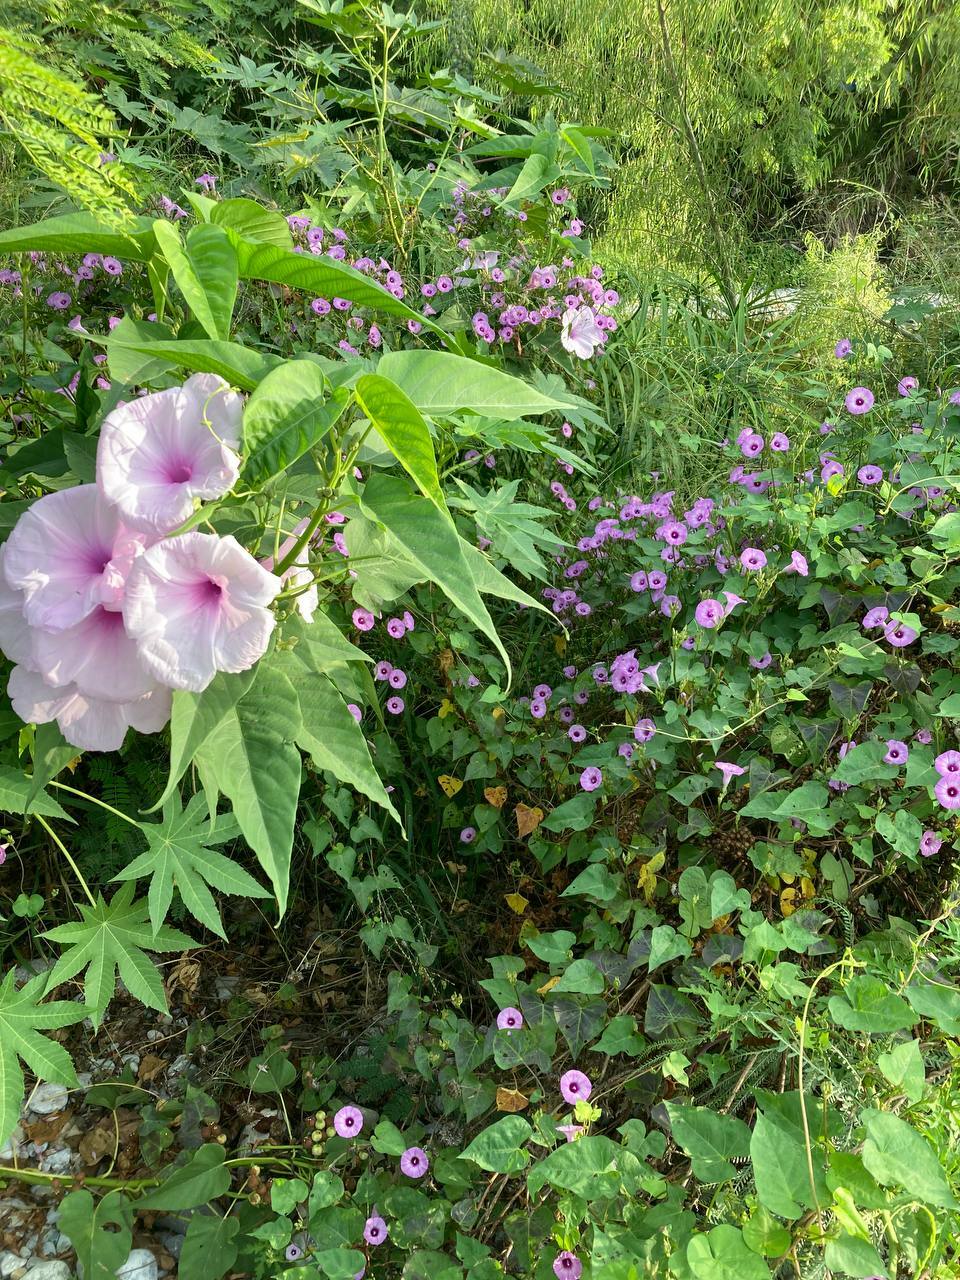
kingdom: Plantae
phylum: Tracheophyta
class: Magnoliopsida
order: Solanales
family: Convolvulaceae
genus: Ipomoea
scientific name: Ipomoea carnea
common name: Morning-glory
